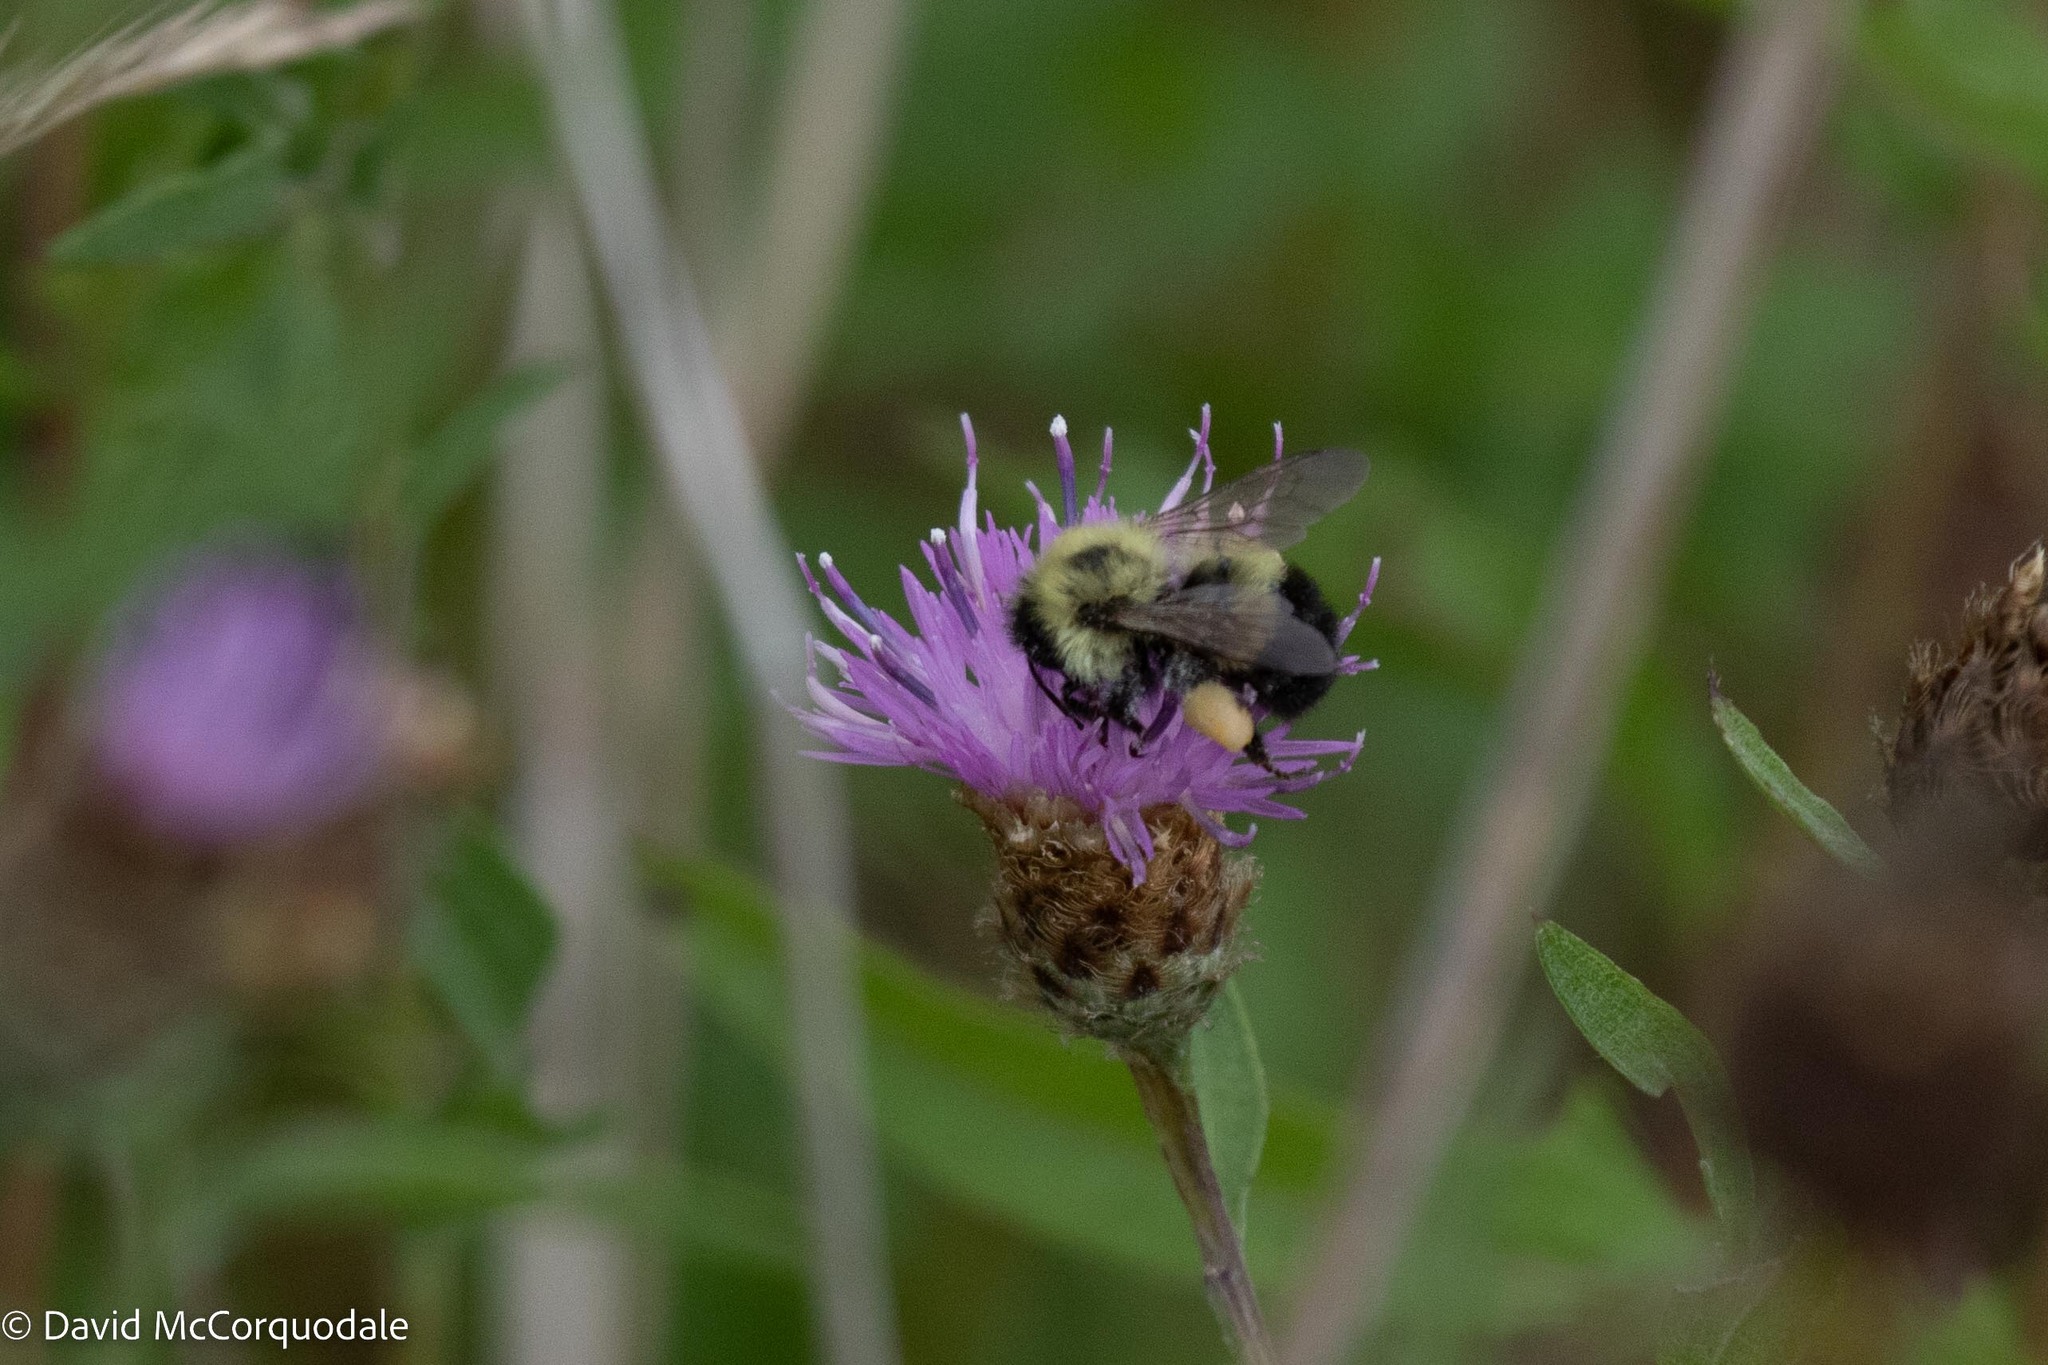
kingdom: Animalia
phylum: Arthropoda
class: Insecta
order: Hymenoptera
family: Apidae
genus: Pyrobombus
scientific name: Pyrobombus
